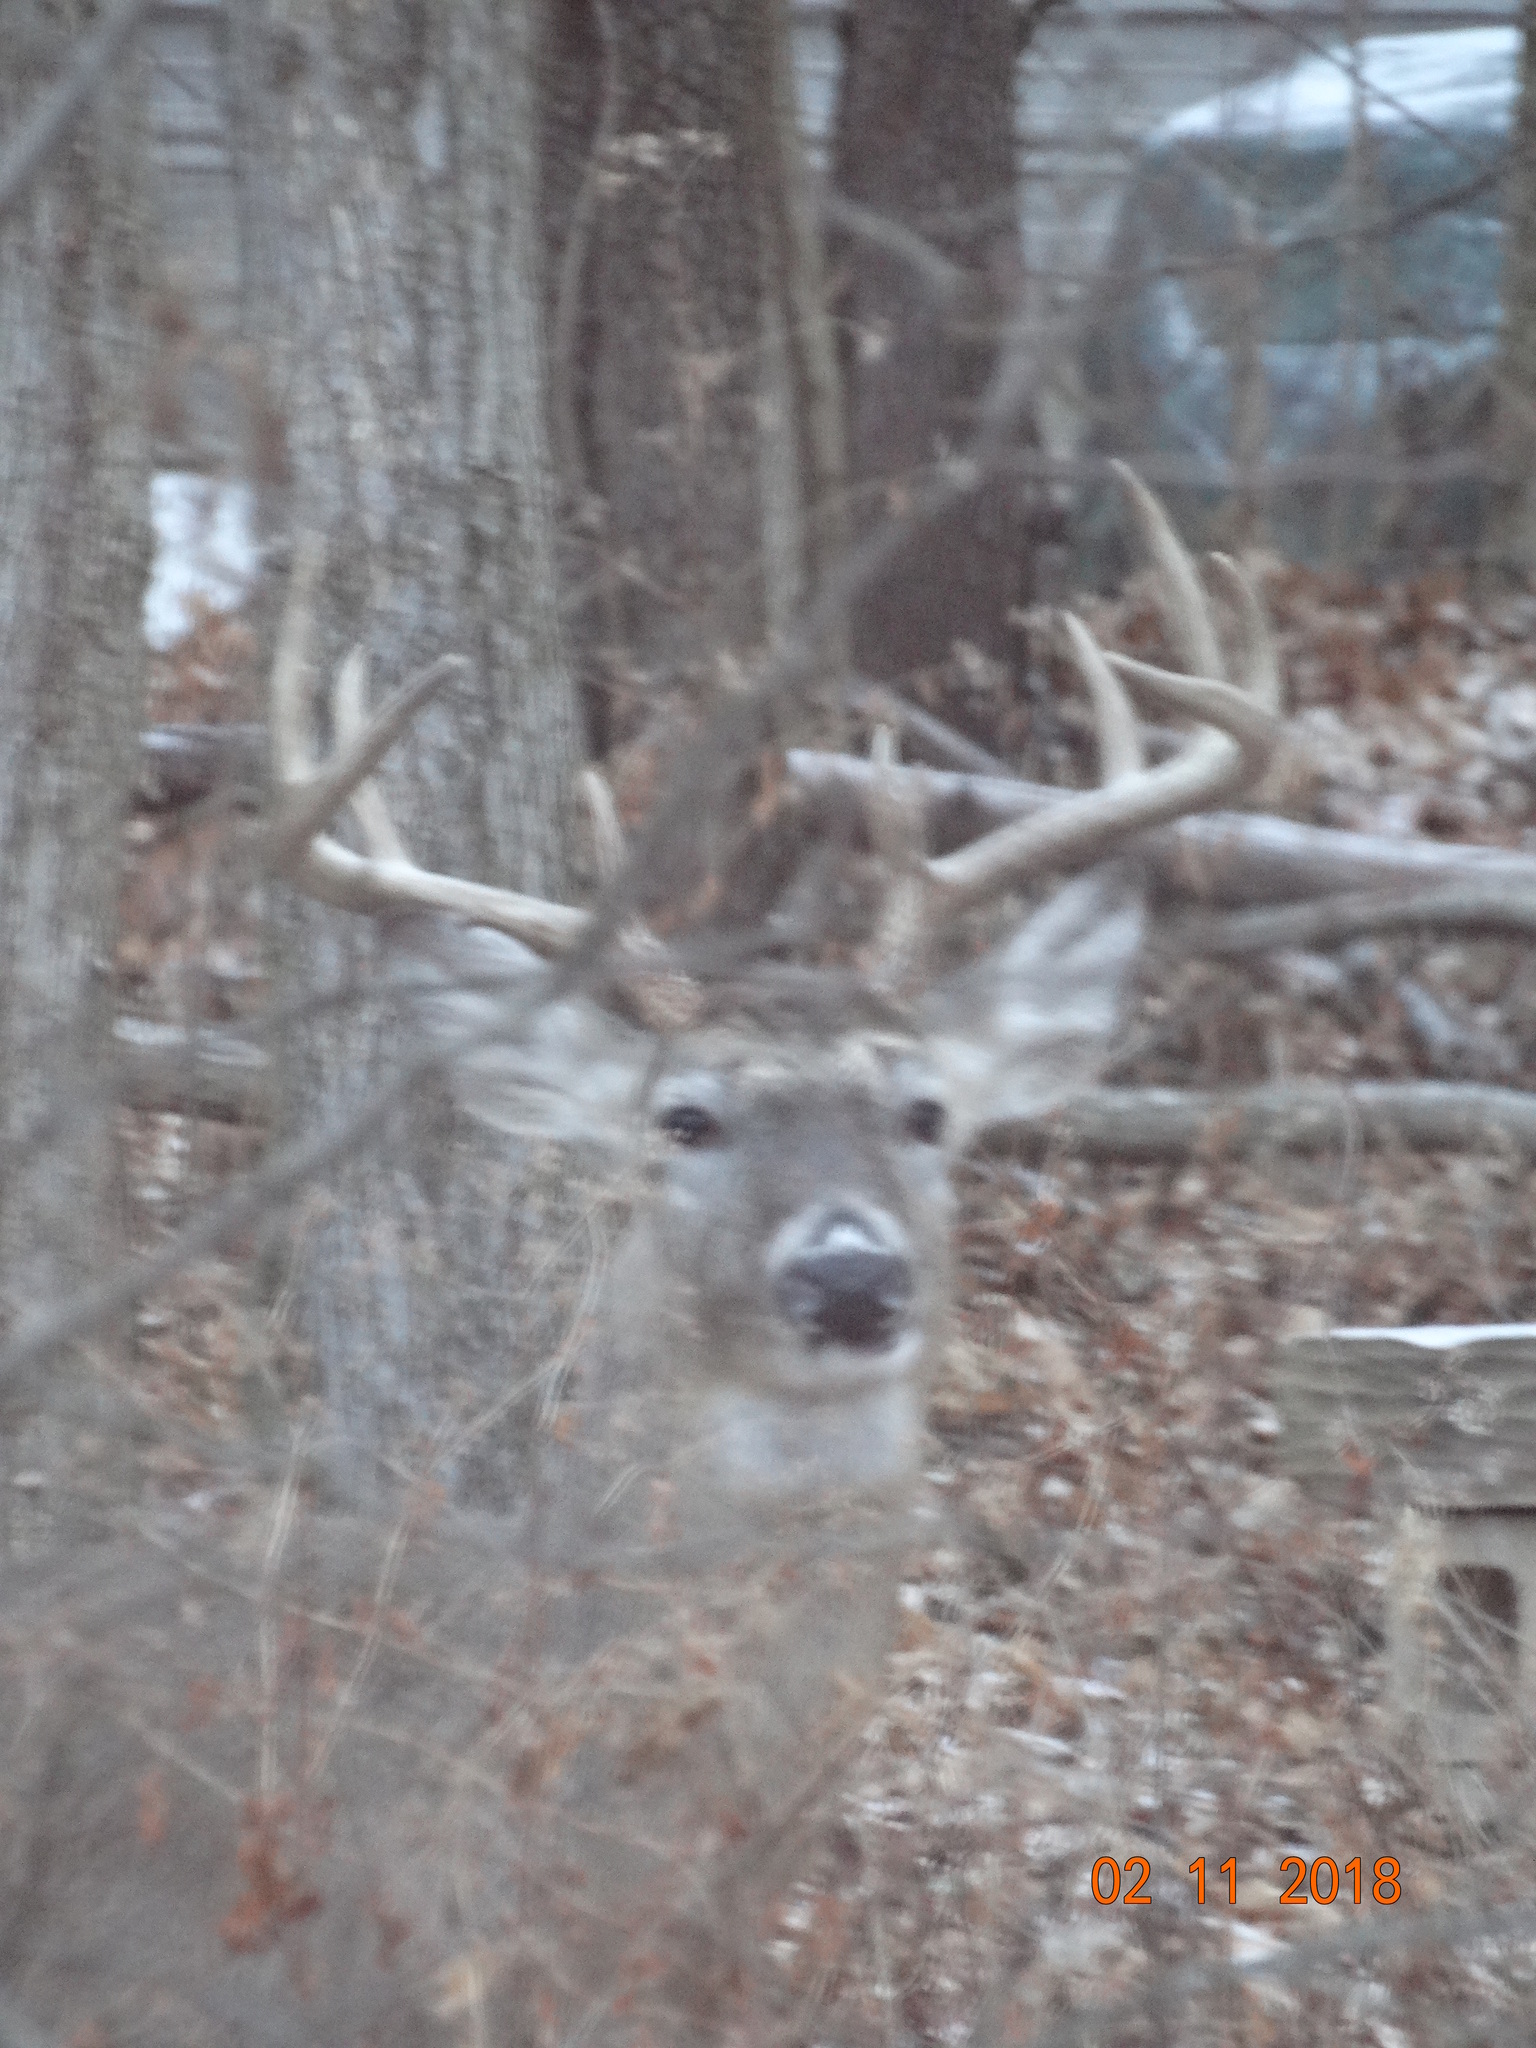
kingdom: Animalia
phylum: Chordata
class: Mammalia
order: Artiodactyla
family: Cervidae
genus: Odocoileus
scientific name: Odocoileus virginianus
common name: White-tailed deer
